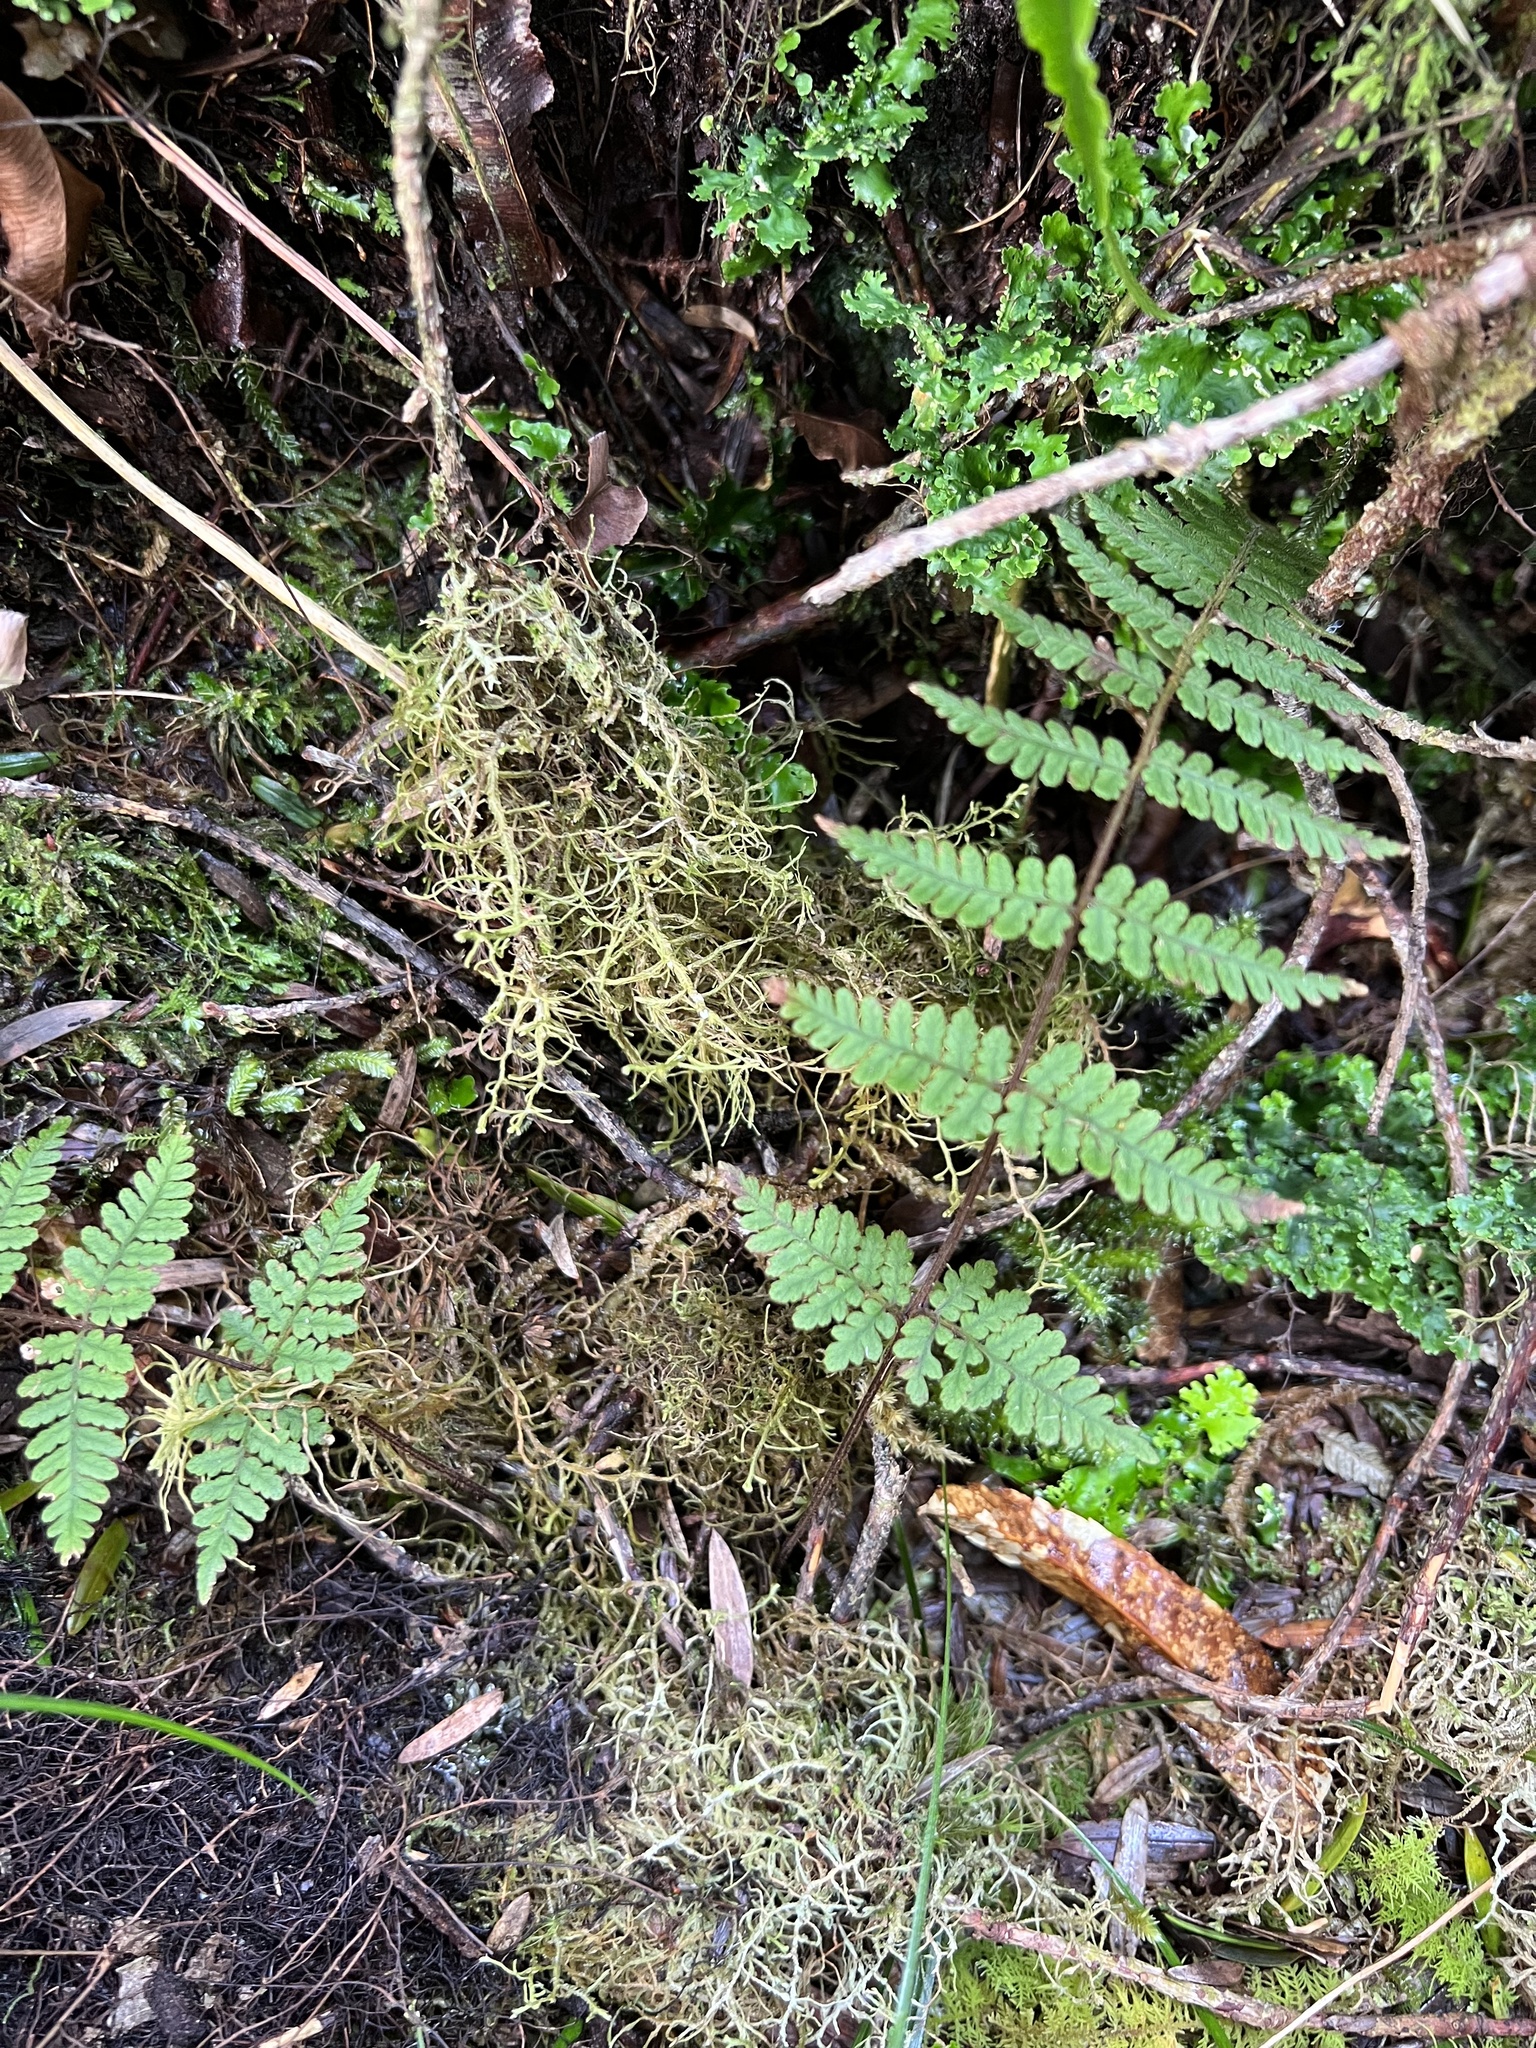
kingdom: Plantae
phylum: Tracheophyta
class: Polypodiopsida
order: Polypodiales
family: Dennstaedtiaceae
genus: Hypolepis
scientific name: Hypolepis rugosula
